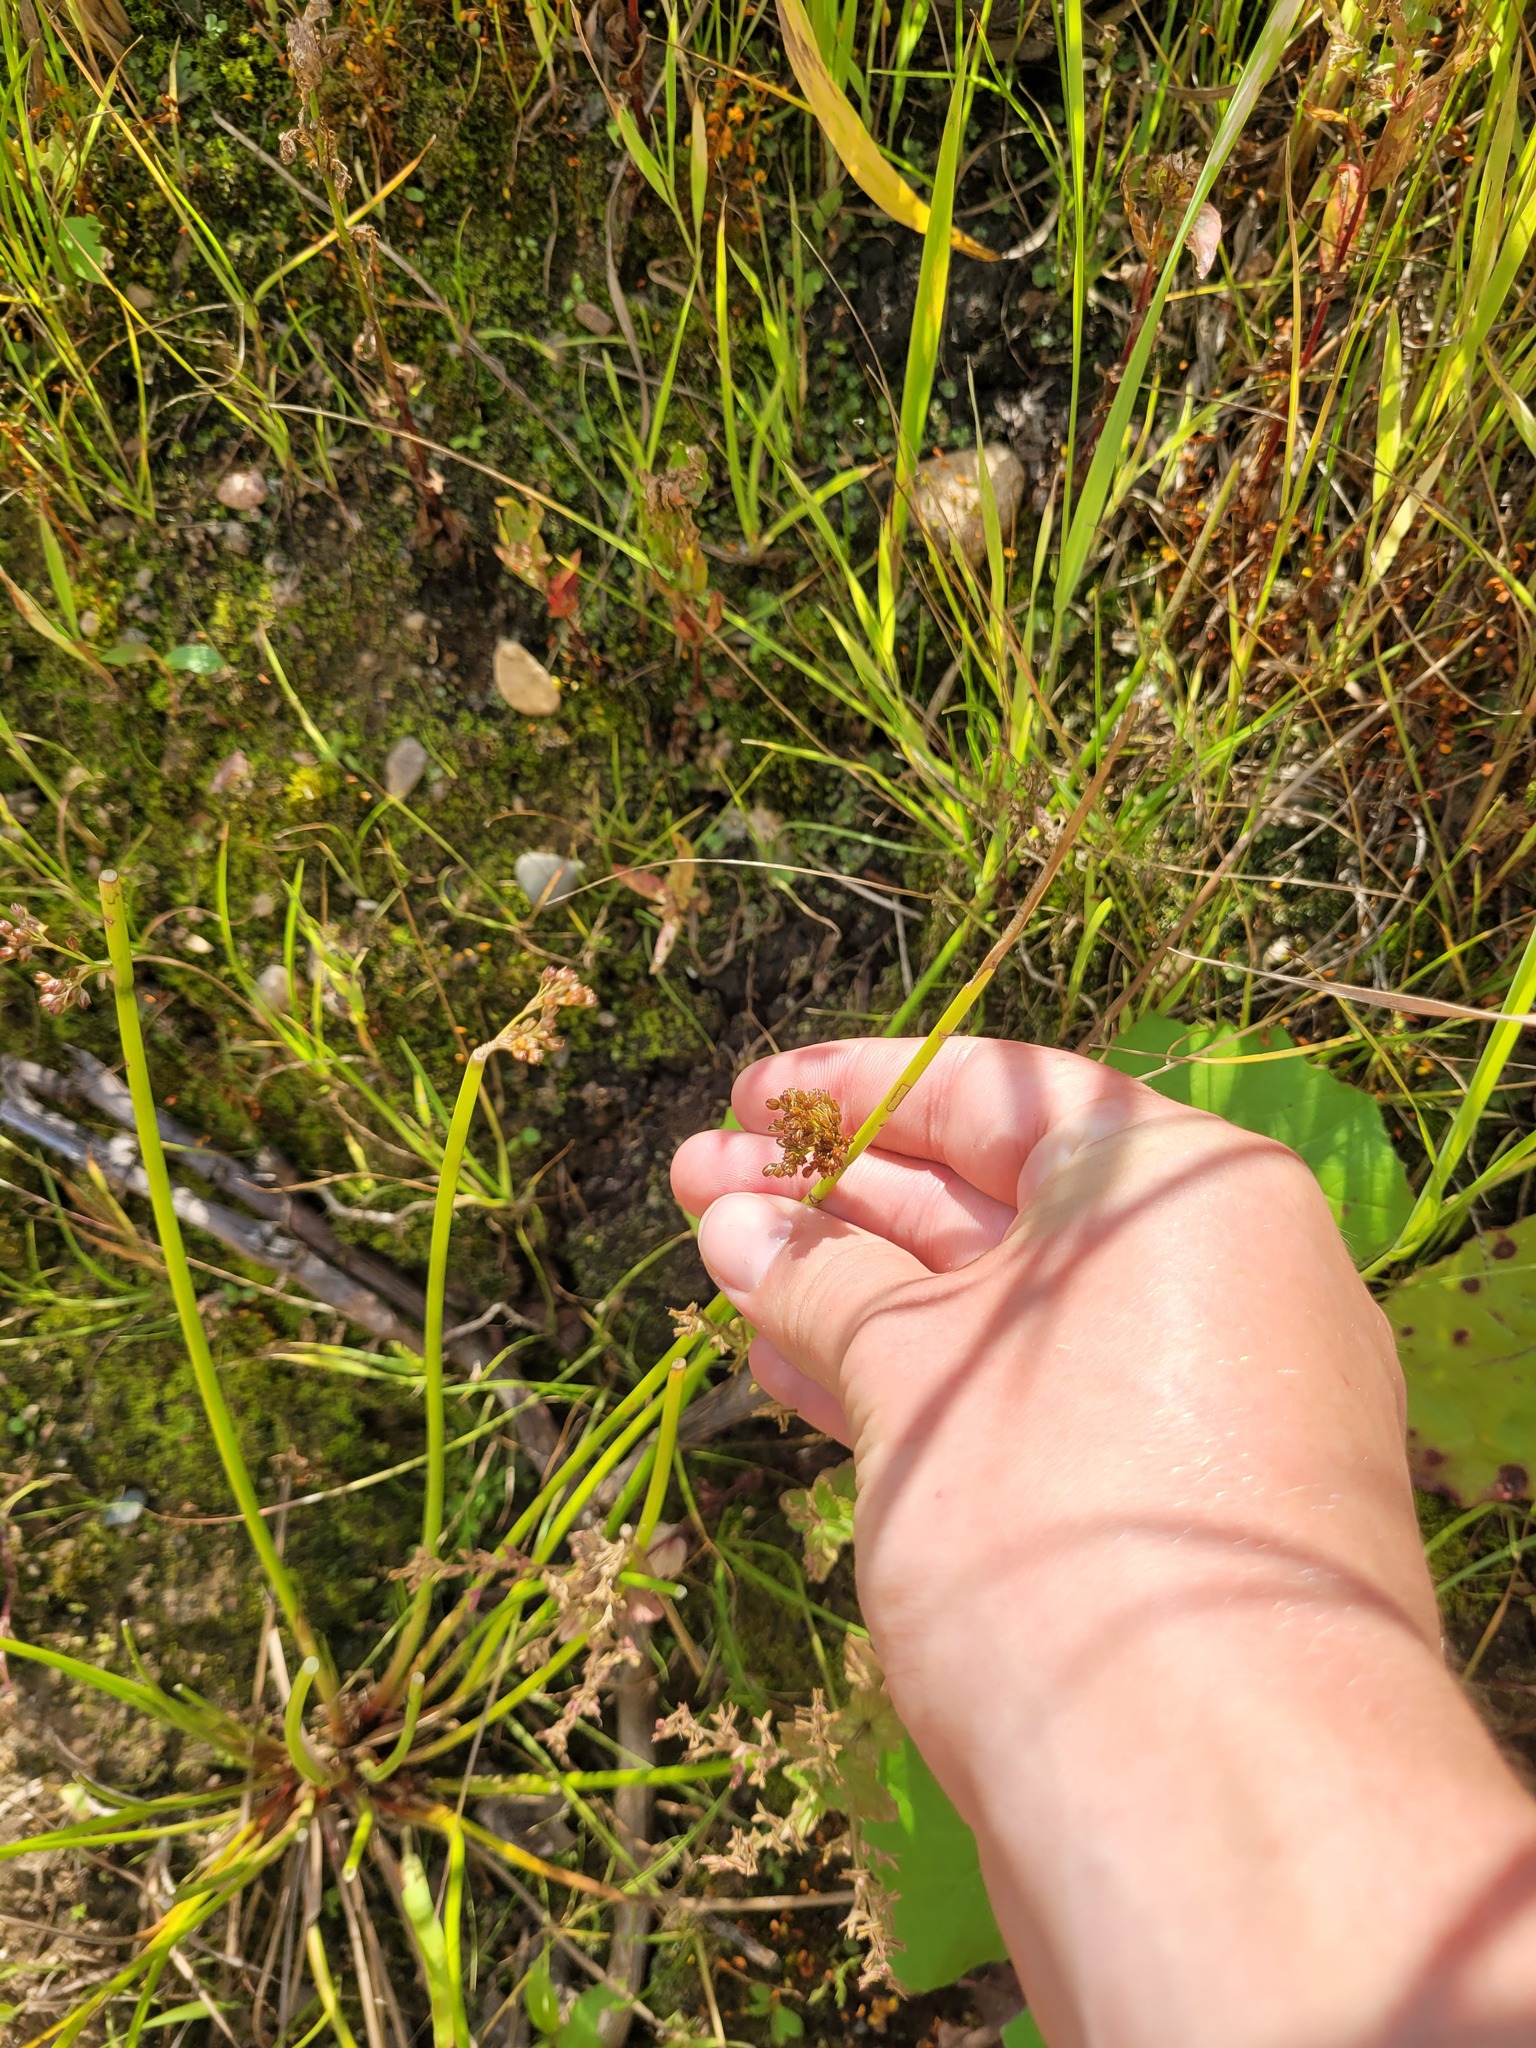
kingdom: Plantae
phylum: Tracheophyta
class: Liliopsida
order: Poales
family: Juncaceae
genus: Juncus
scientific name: Juncus effusus
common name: Soft rush
